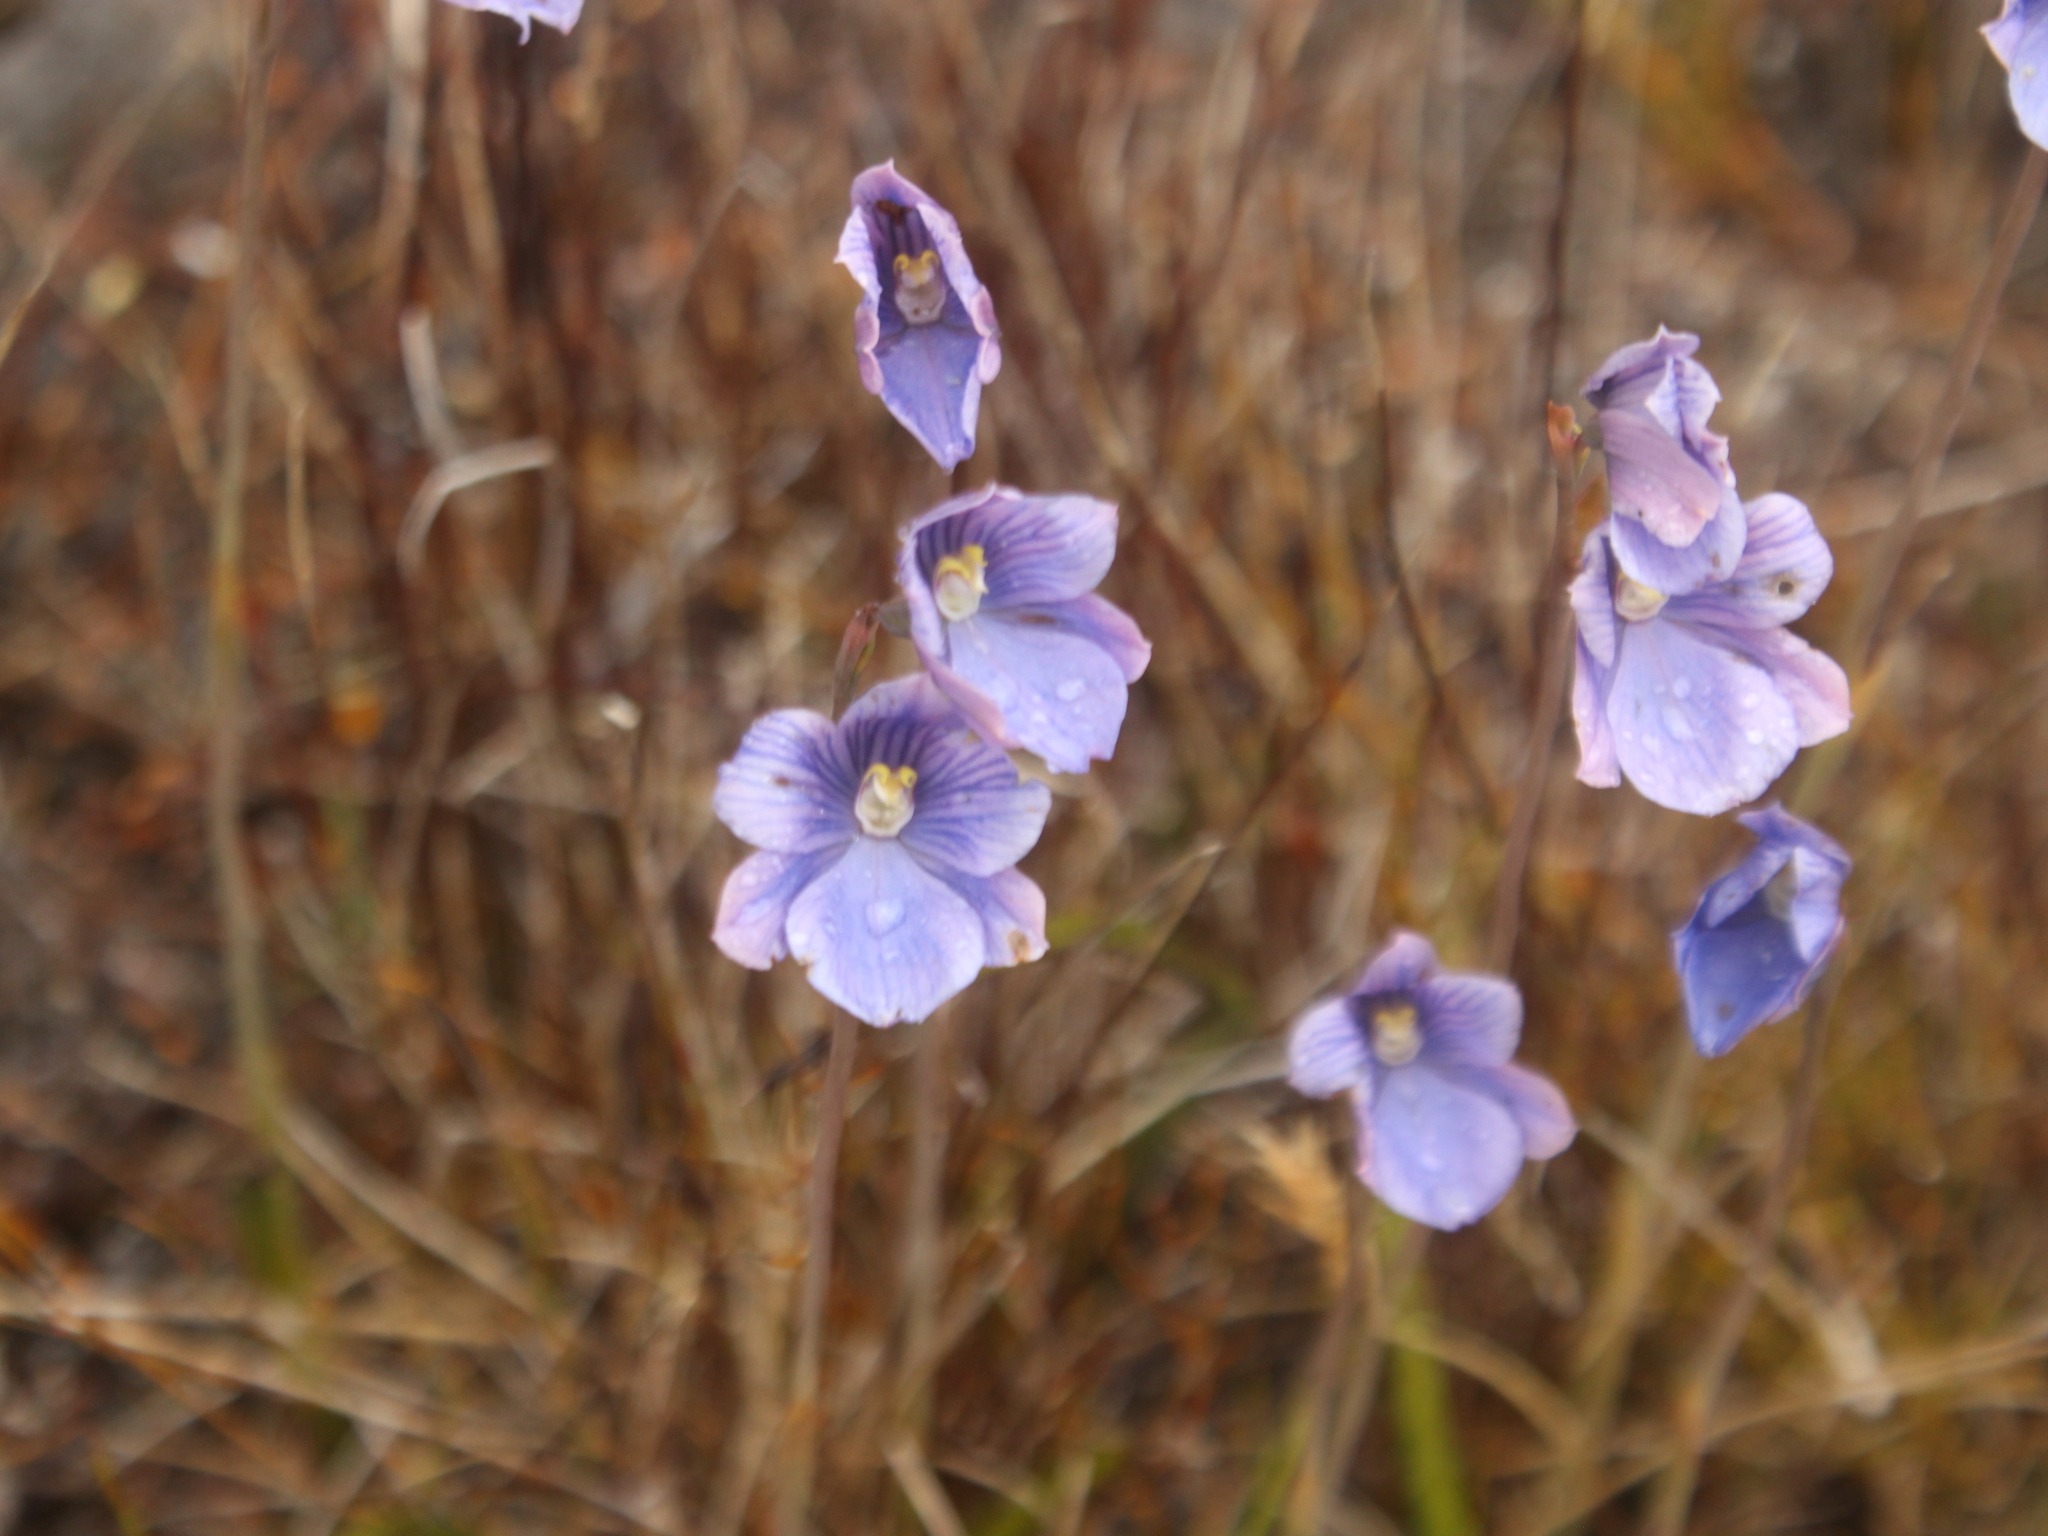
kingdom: Plantae
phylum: Tracheophyta
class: Liliopsida
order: Asparagales
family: Orchidaceae
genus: Thelymitra
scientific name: Thelymitra cyanea
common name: Blue sun-orchid
